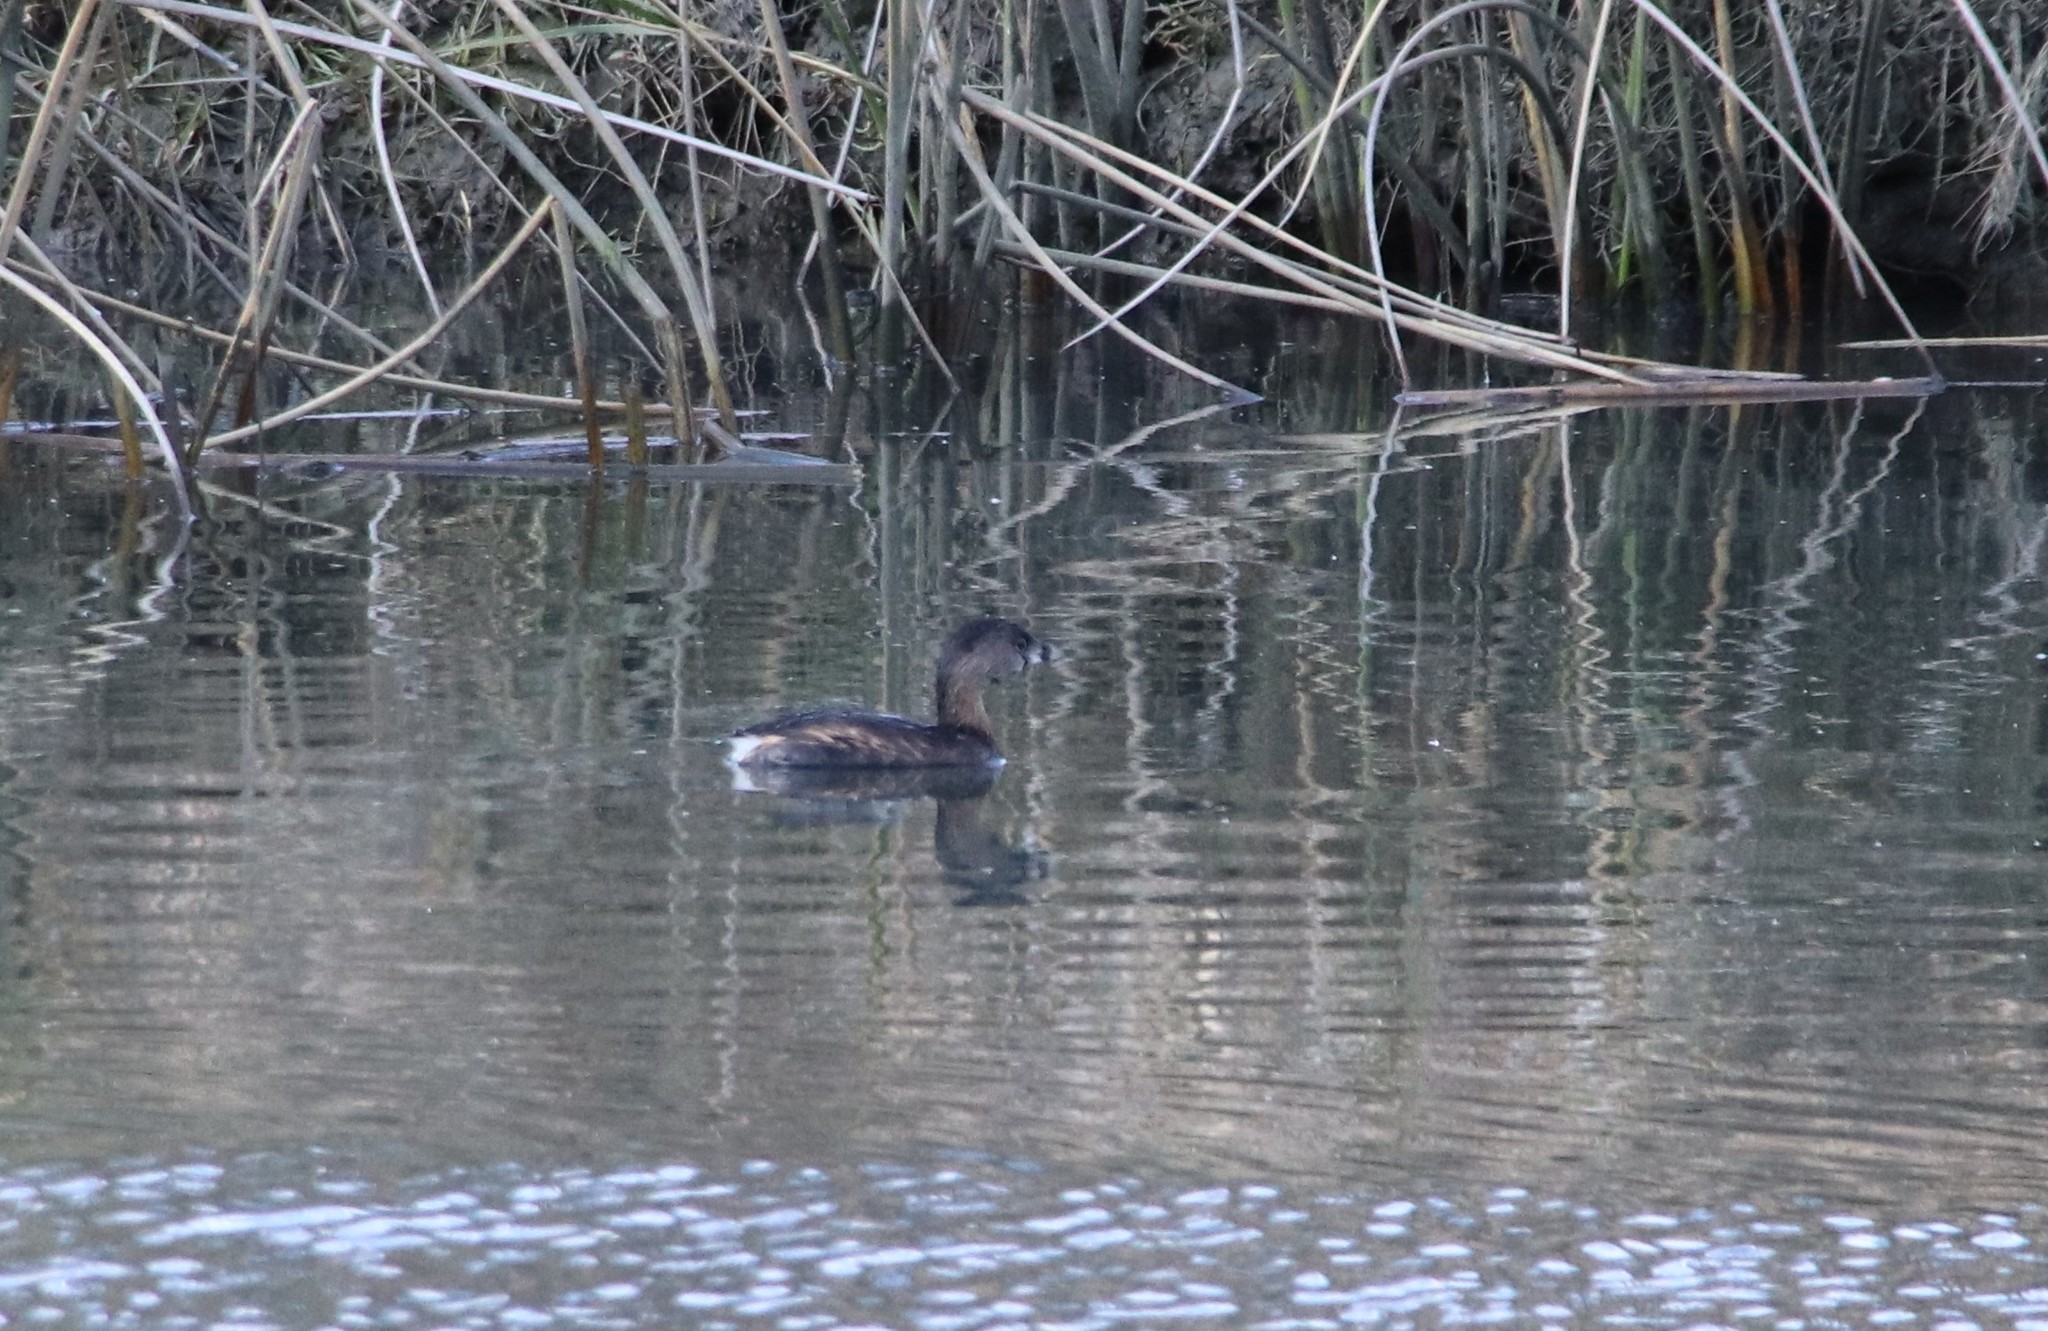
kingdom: Animalia
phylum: Chordata
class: Aves
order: Podicipediformes
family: Podicipedidae
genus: Podilymbus
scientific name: Podilymbus podiceps
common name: Pied-billed grebe
